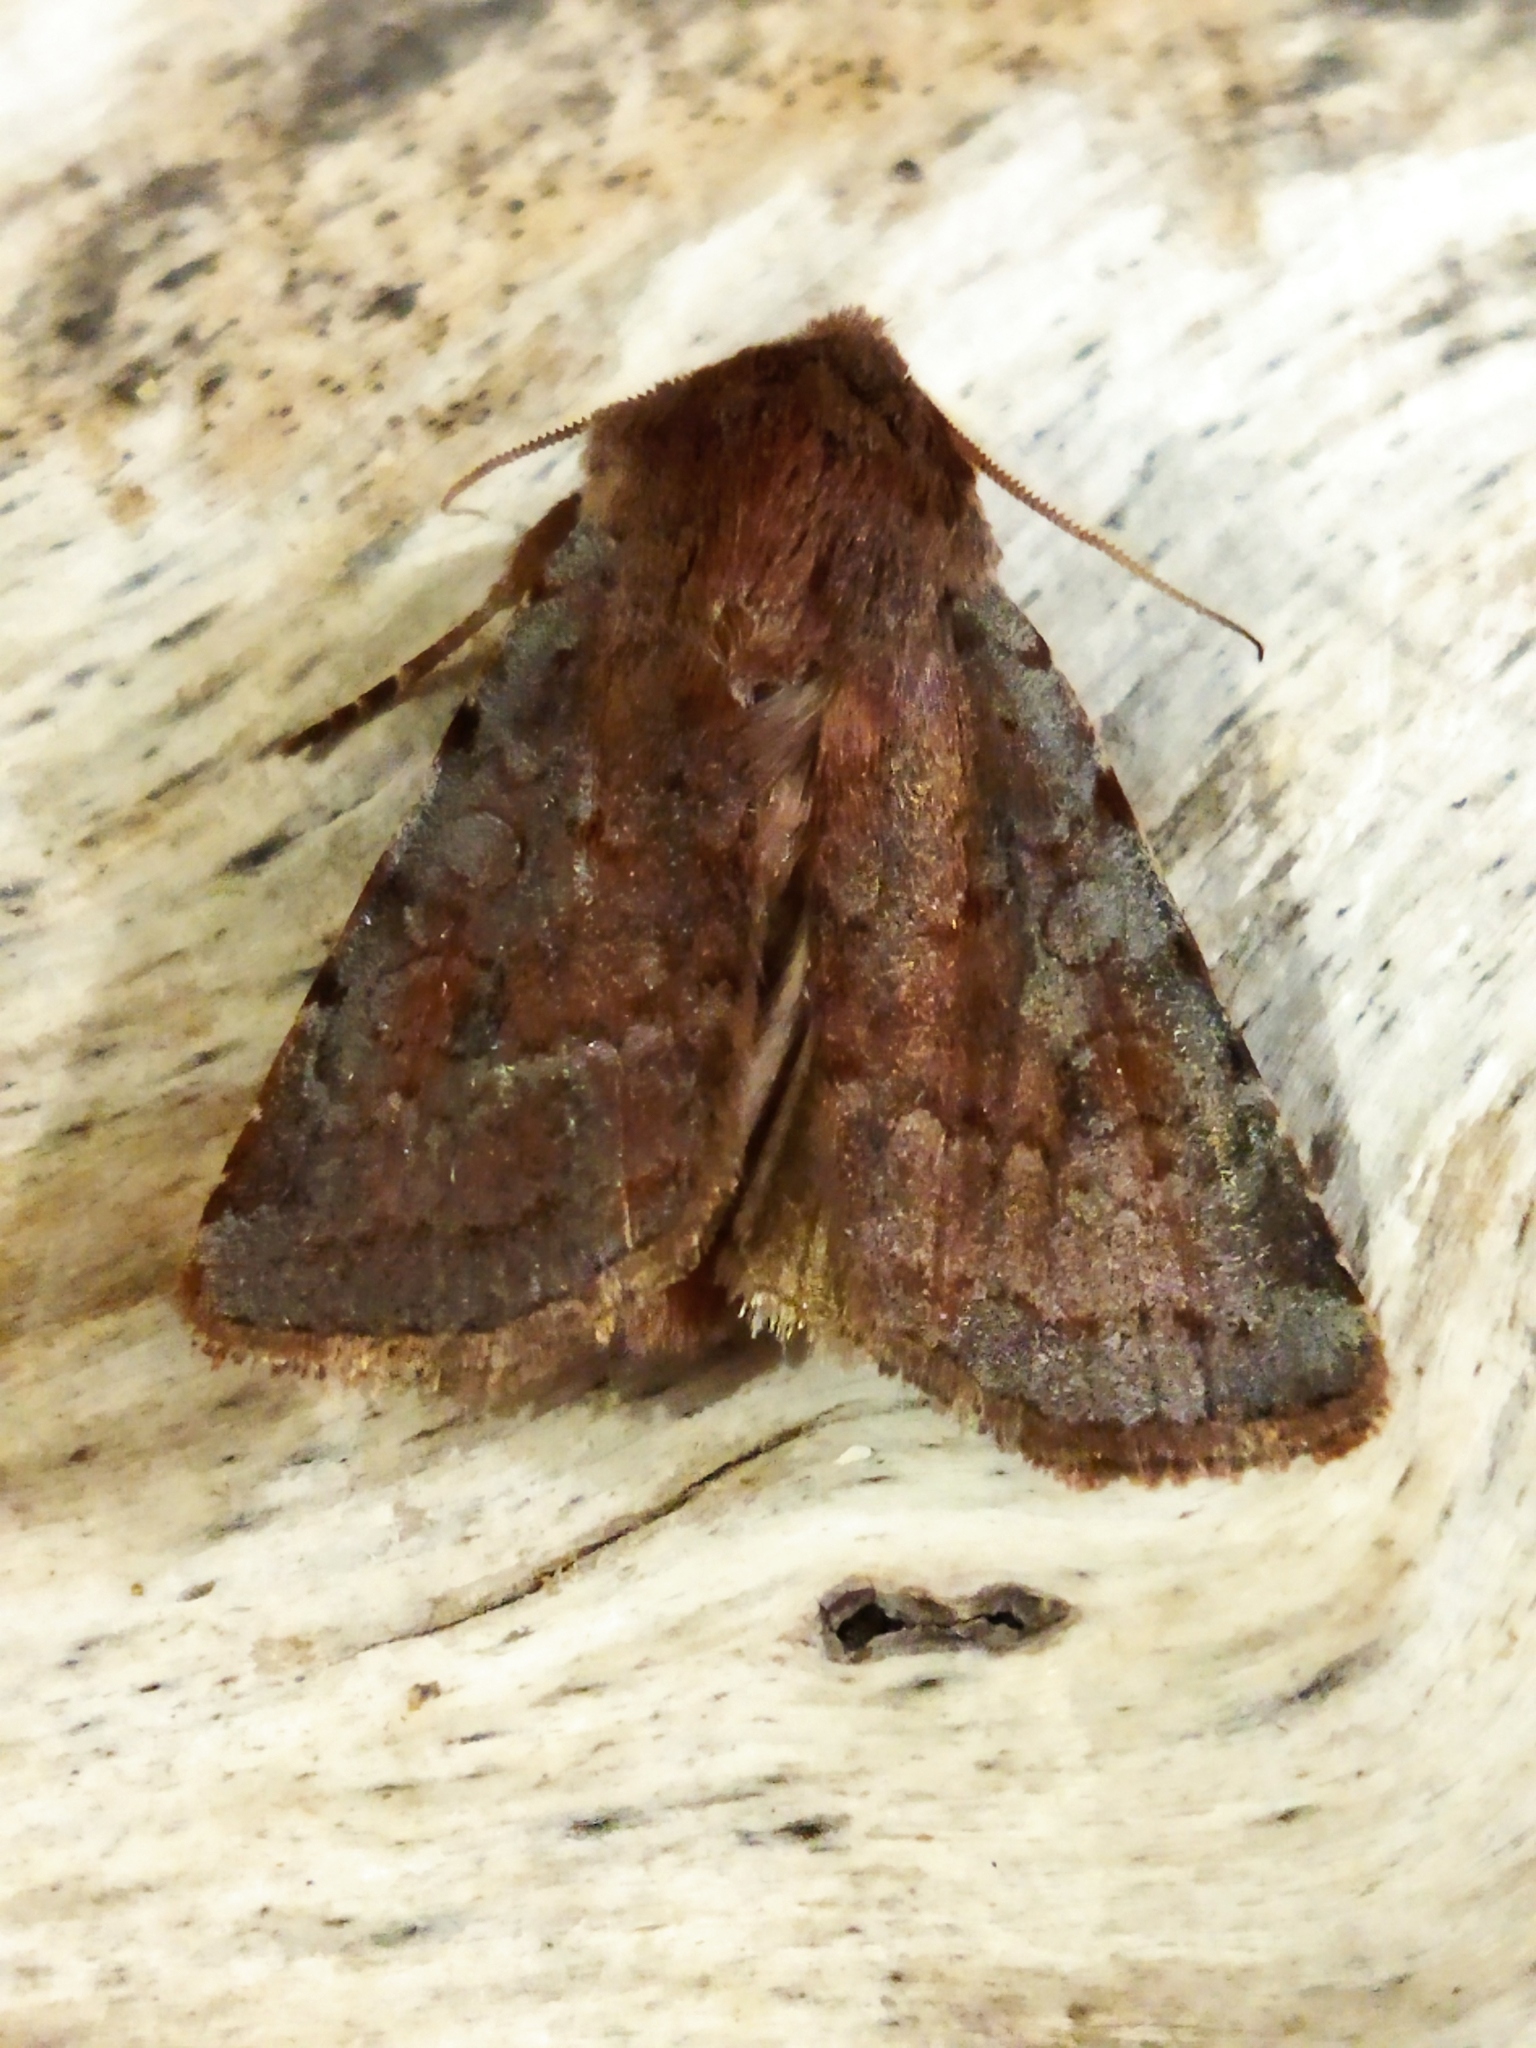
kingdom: Animalia
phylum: Arthropoda
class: Insecta
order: Lepidoptera
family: Noctuidae
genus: Cerastis
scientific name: Cerastis rubricosa
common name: Red chestnut
